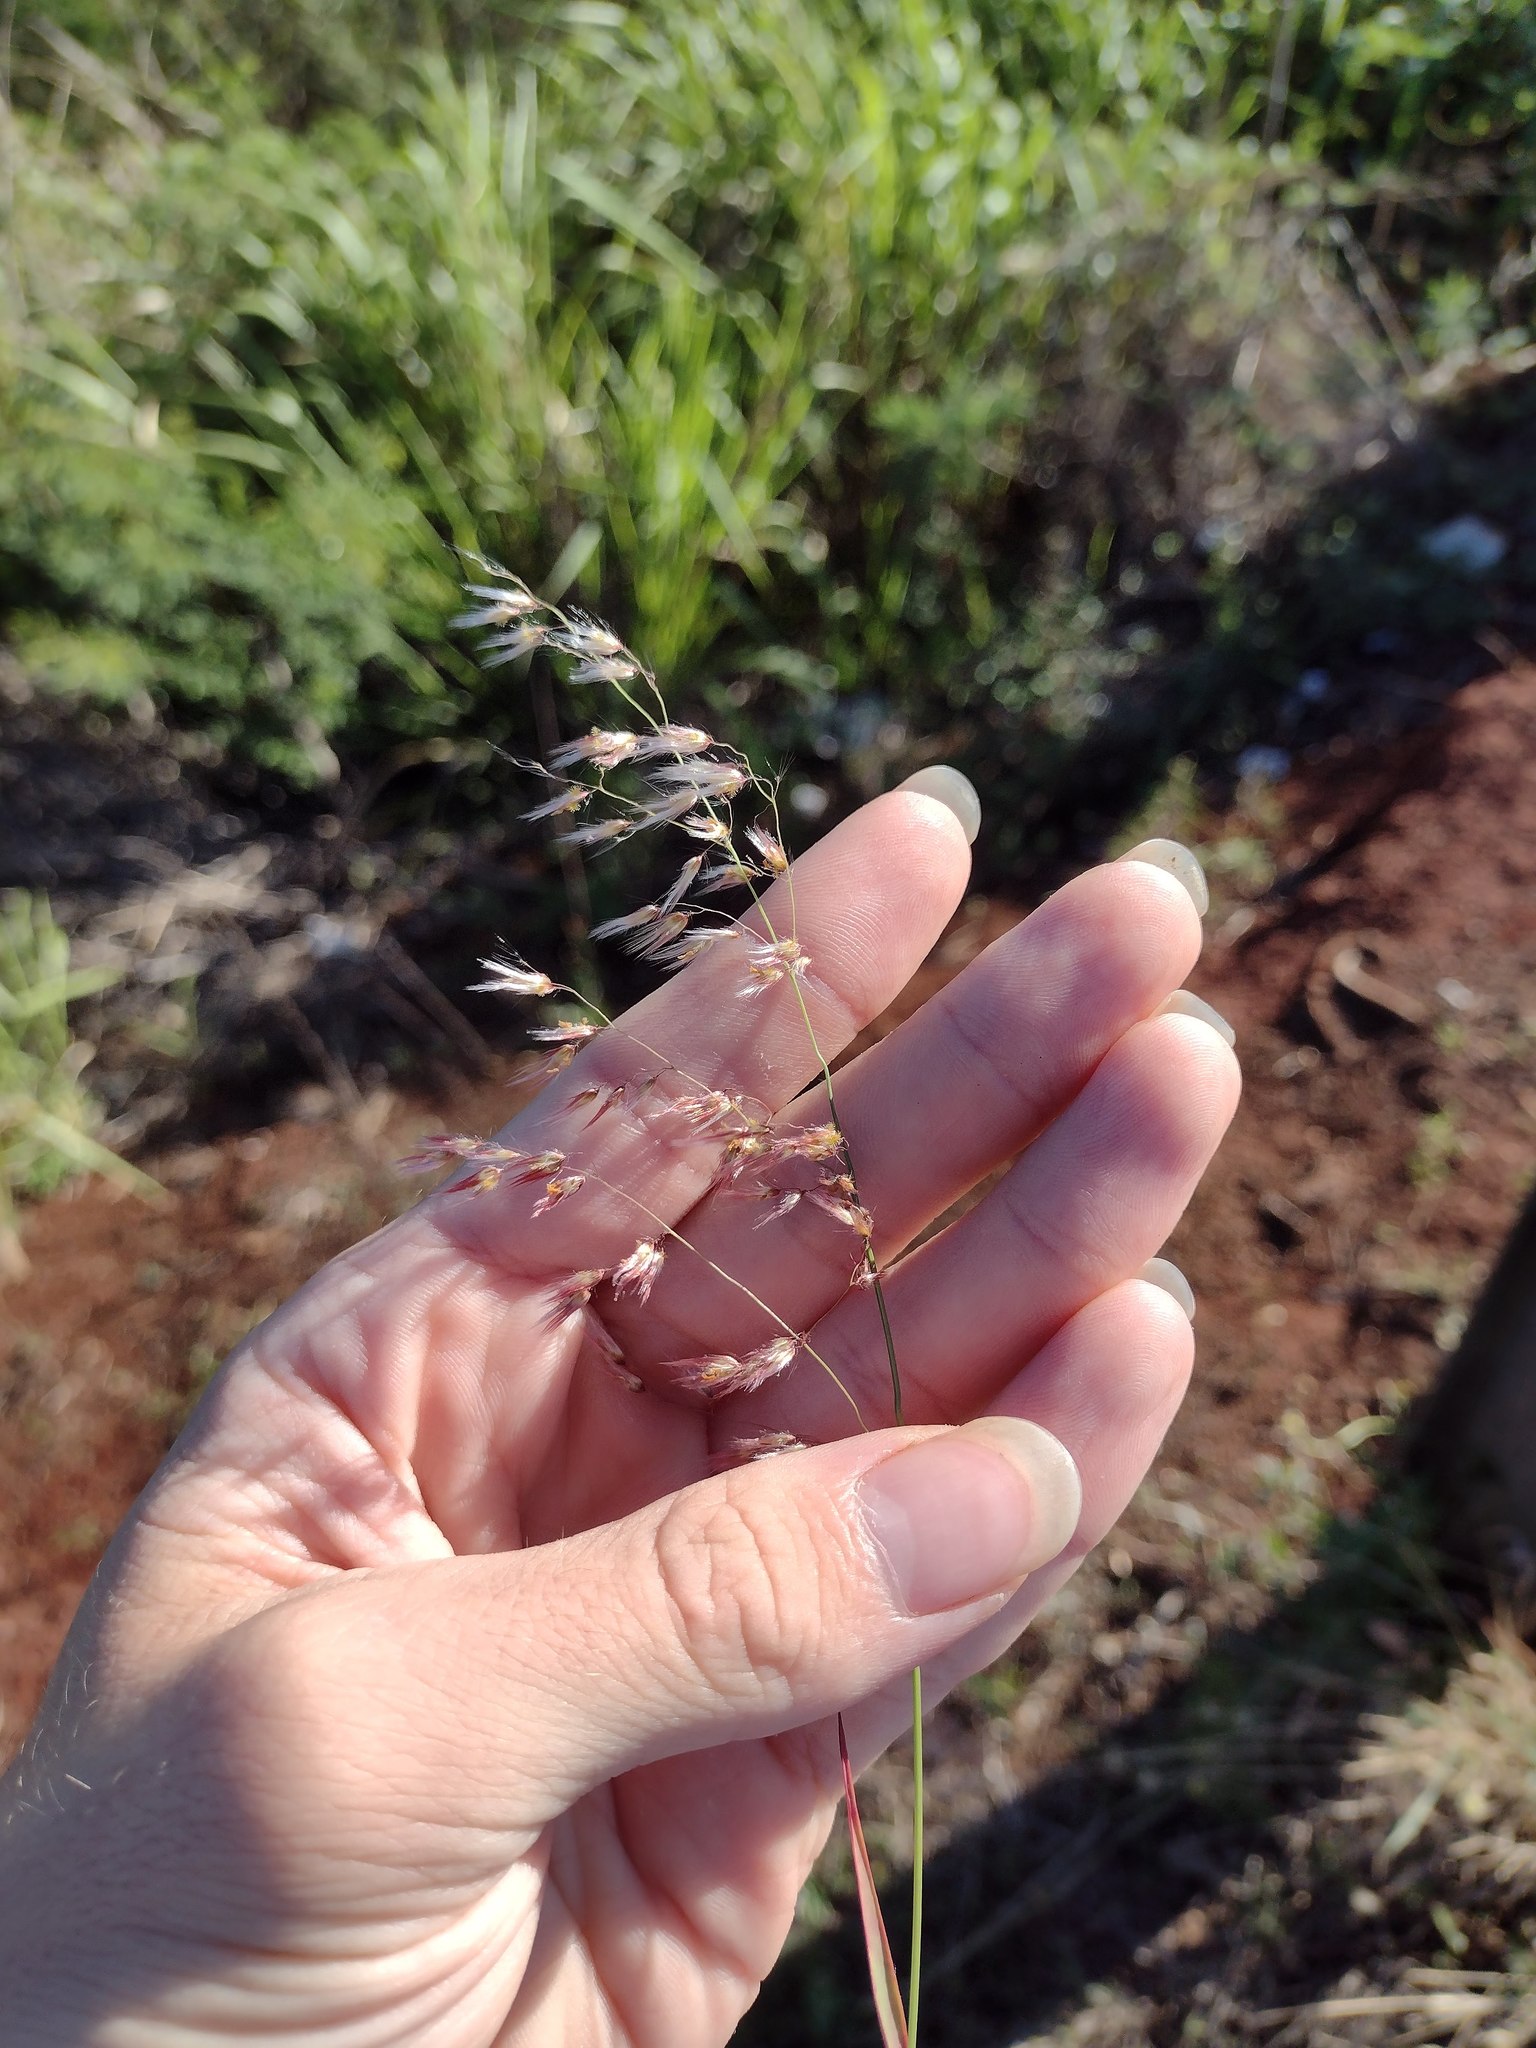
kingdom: Plantae
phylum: Tracheophyta
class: Liliopsida
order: Poales
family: Poaceae
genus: Melinis
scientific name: Melinis repens
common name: Rose natal grass
